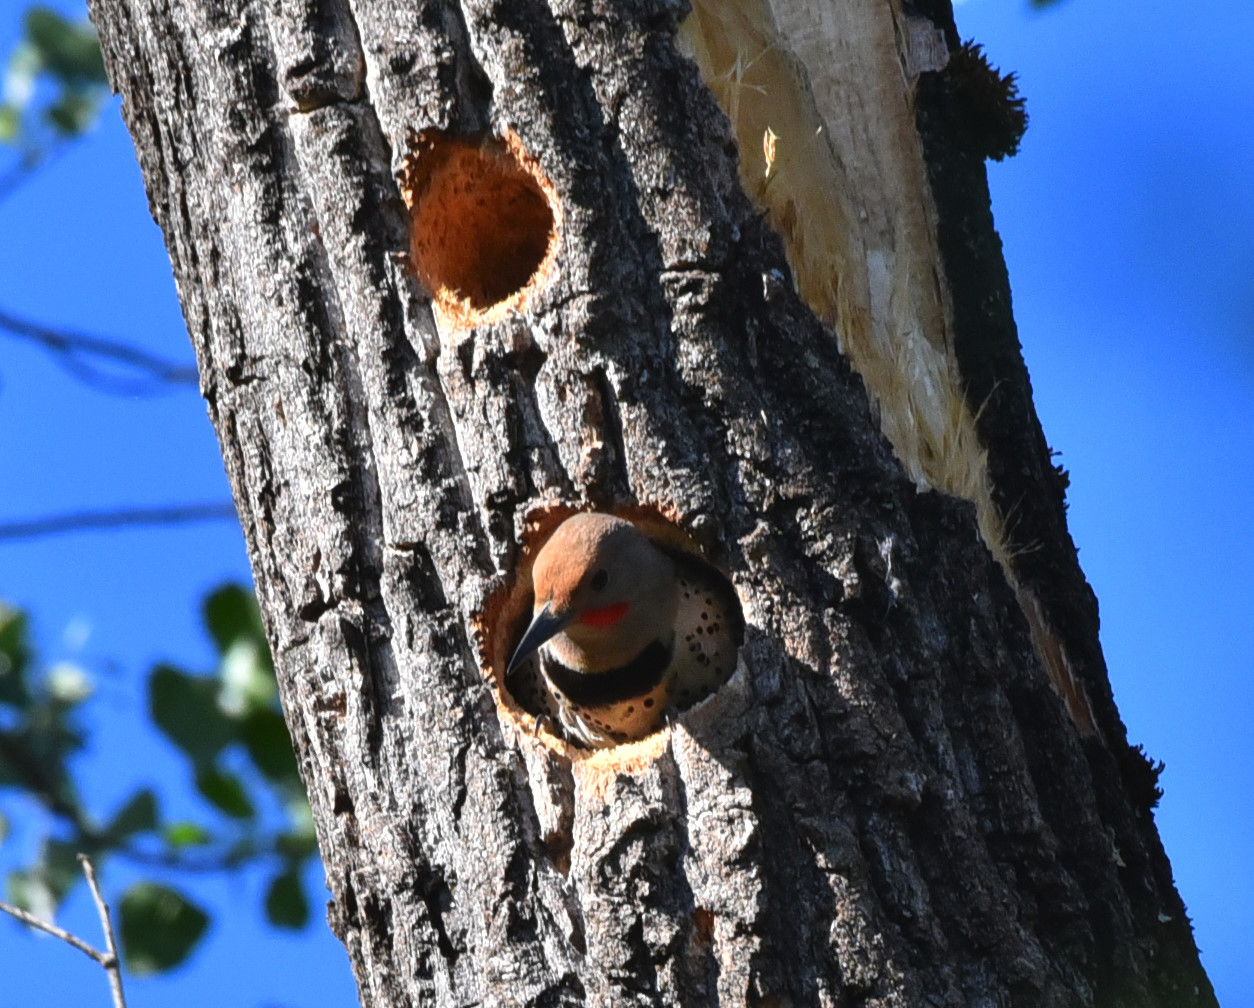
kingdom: Animalia
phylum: Chordata
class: Aves
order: Piciformes
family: Picidae
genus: Colaptes
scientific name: Colaptes auratus
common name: Northern flicker
